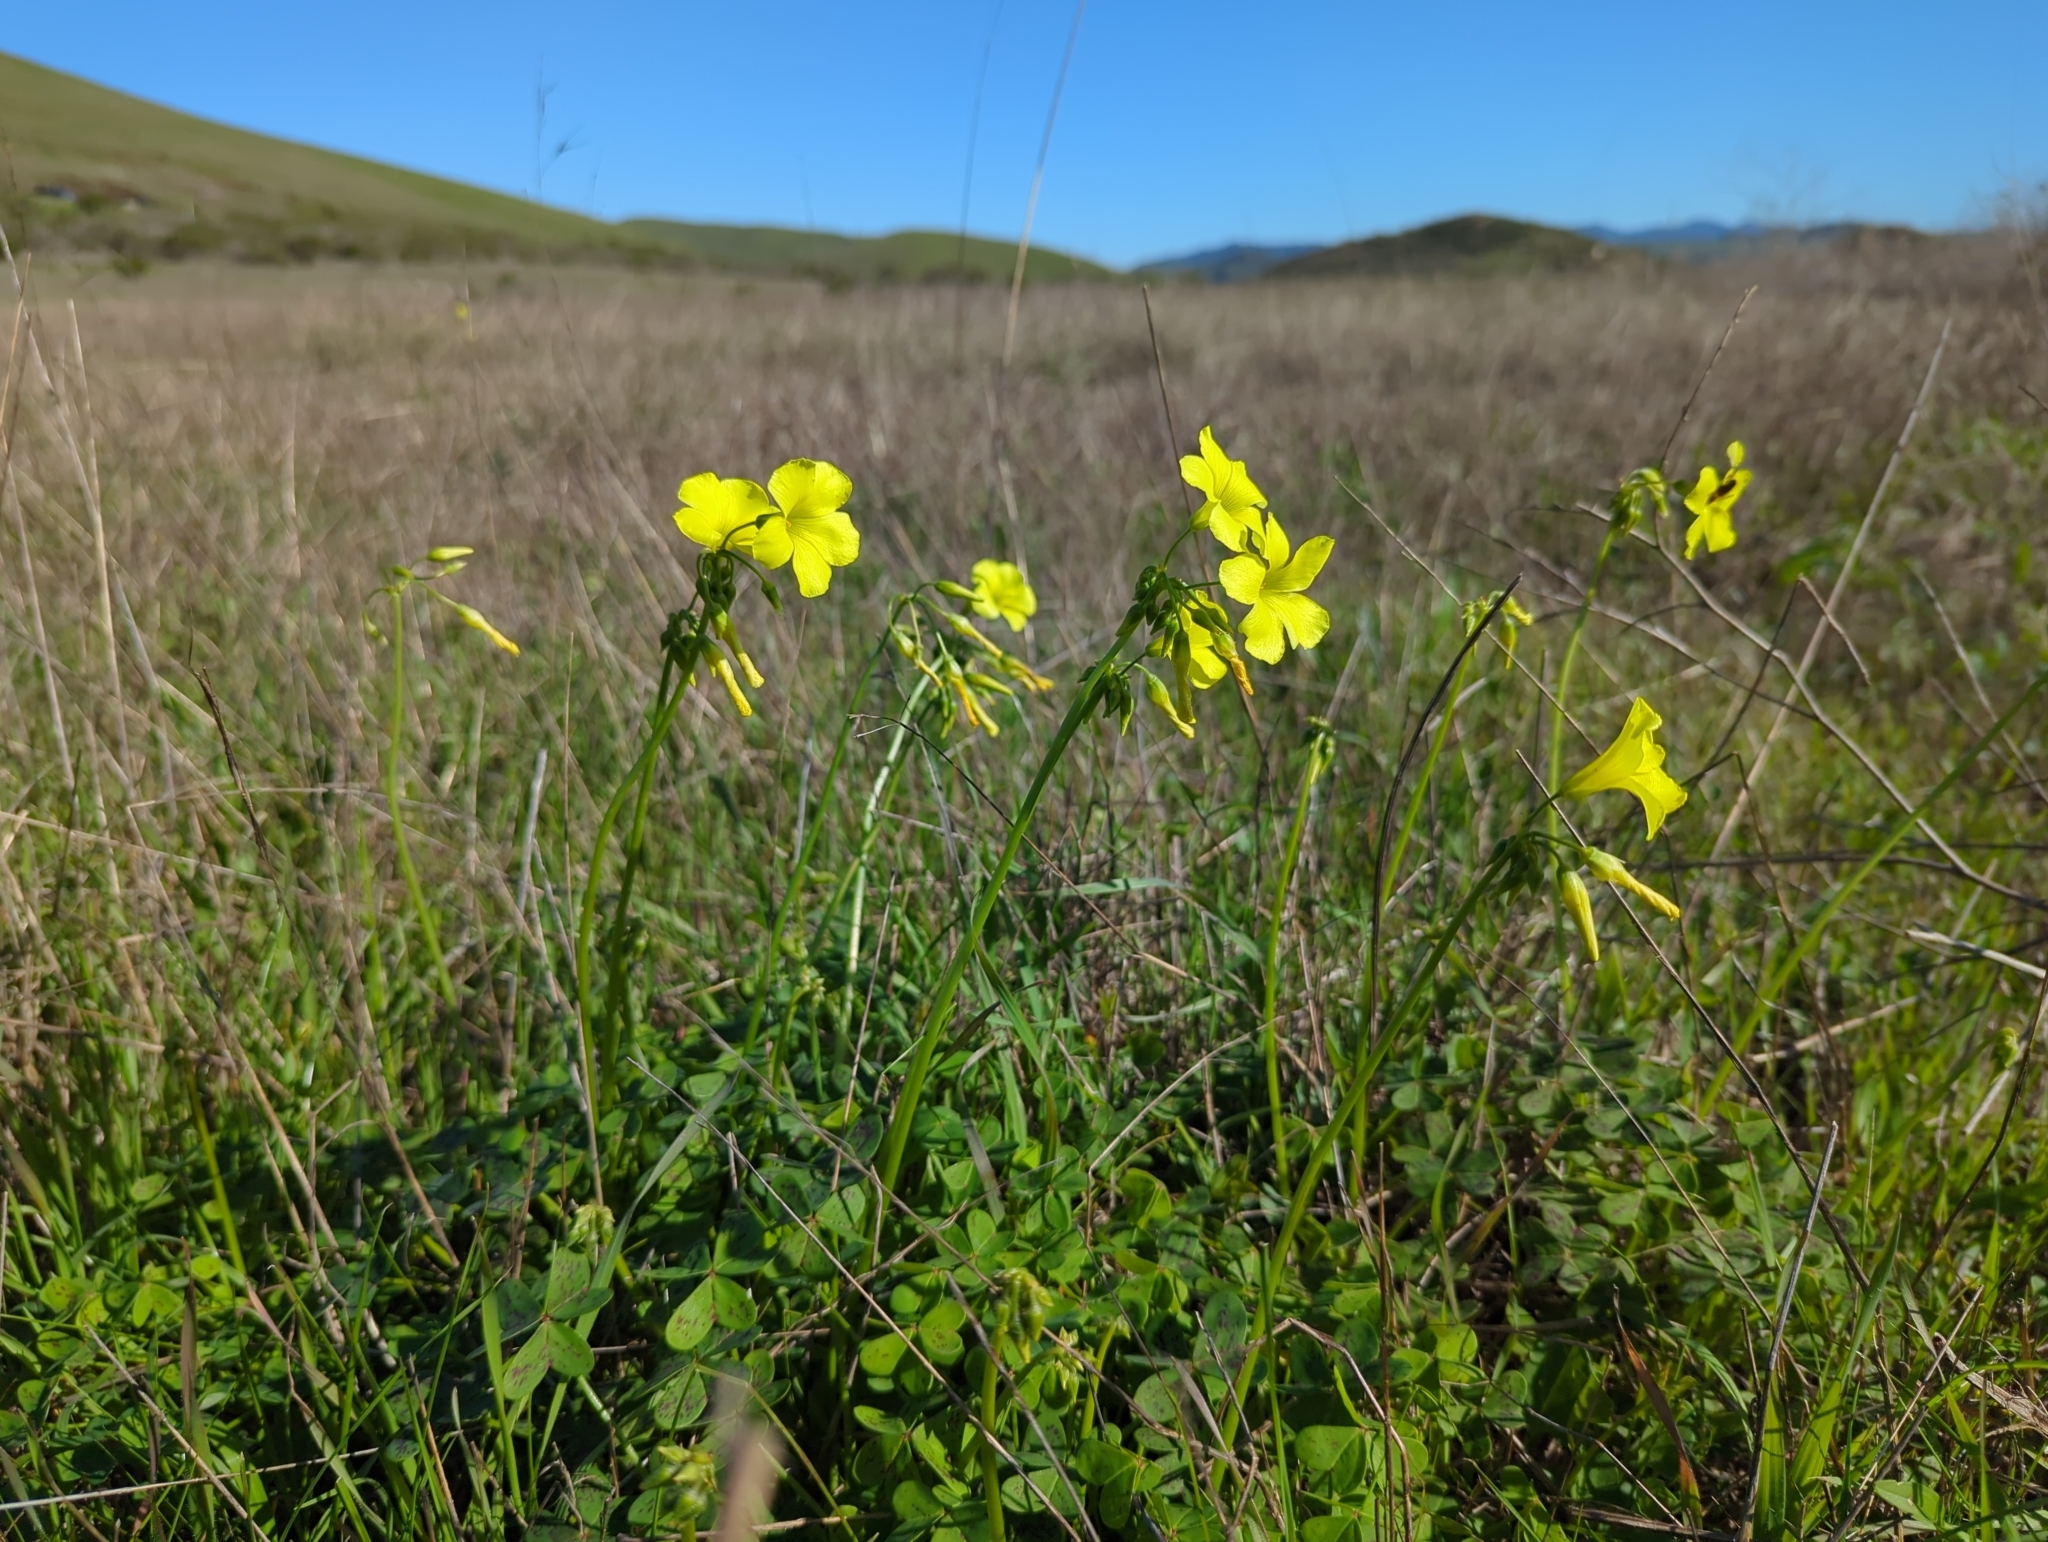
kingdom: Plantae
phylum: Tracheophyta
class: Magnoliopsida
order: Oxalidales
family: Oxalidaceae
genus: Oxalis
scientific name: Oxalis pes-caprae
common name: Bermuda-buttercup
